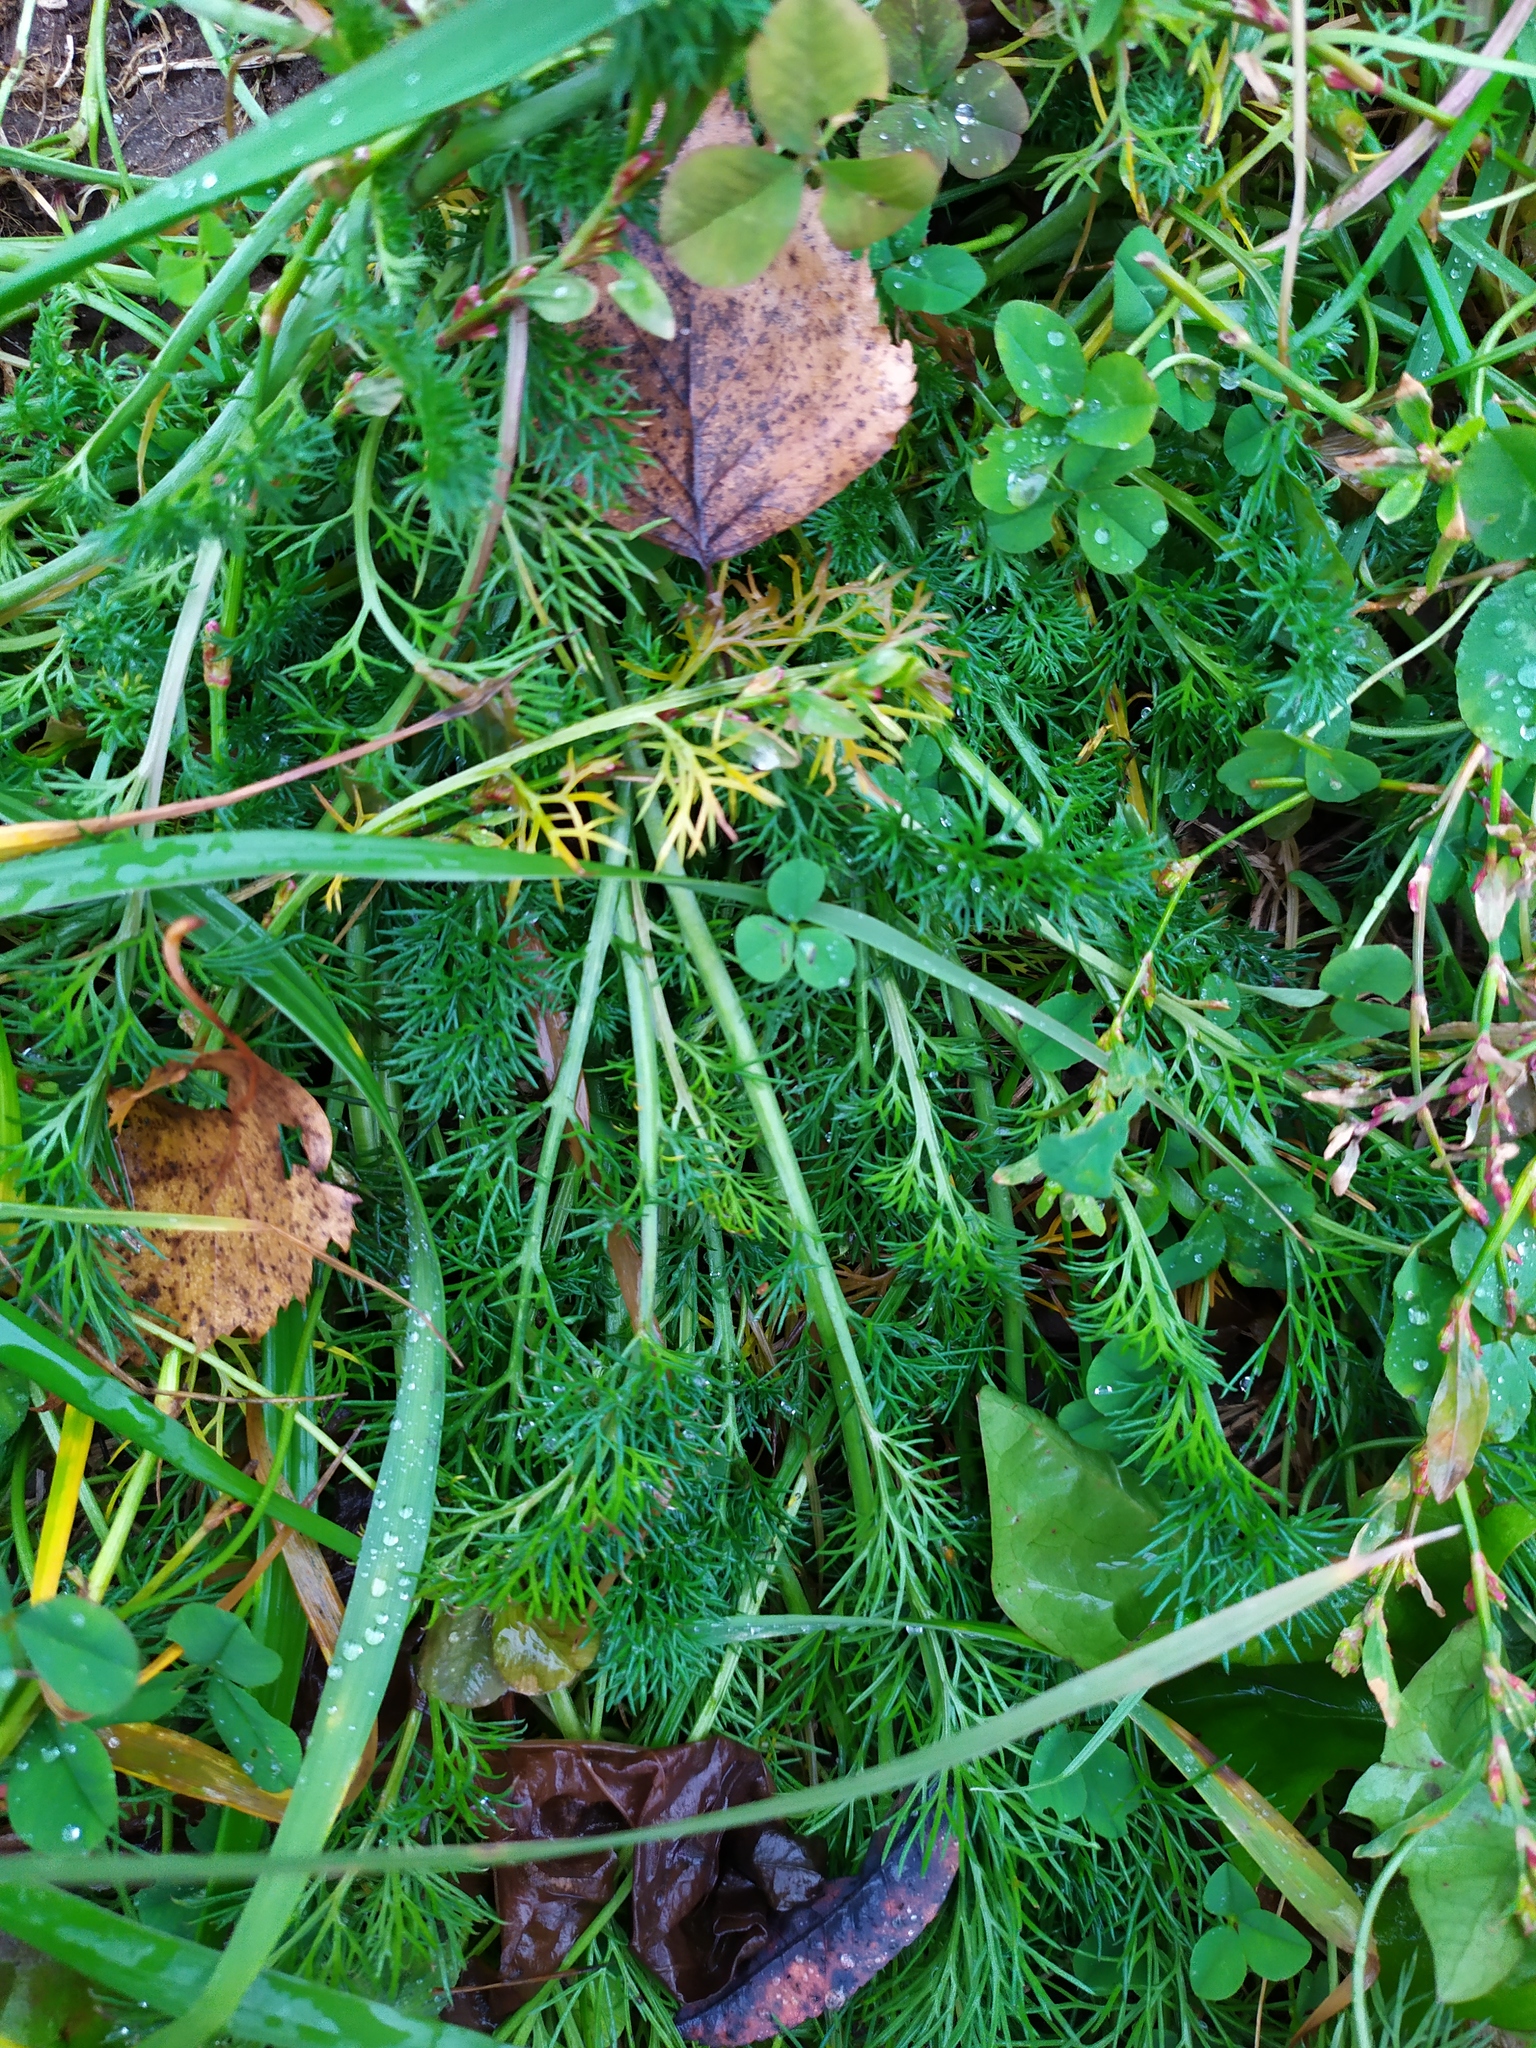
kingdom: Plantae
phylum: Tracheophyta
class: Magnoliopsida
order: Asterales
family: Asteraceae
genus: Tripleurospermum
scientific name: Tripleurospermum inodorum
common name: Scentless mayweed
